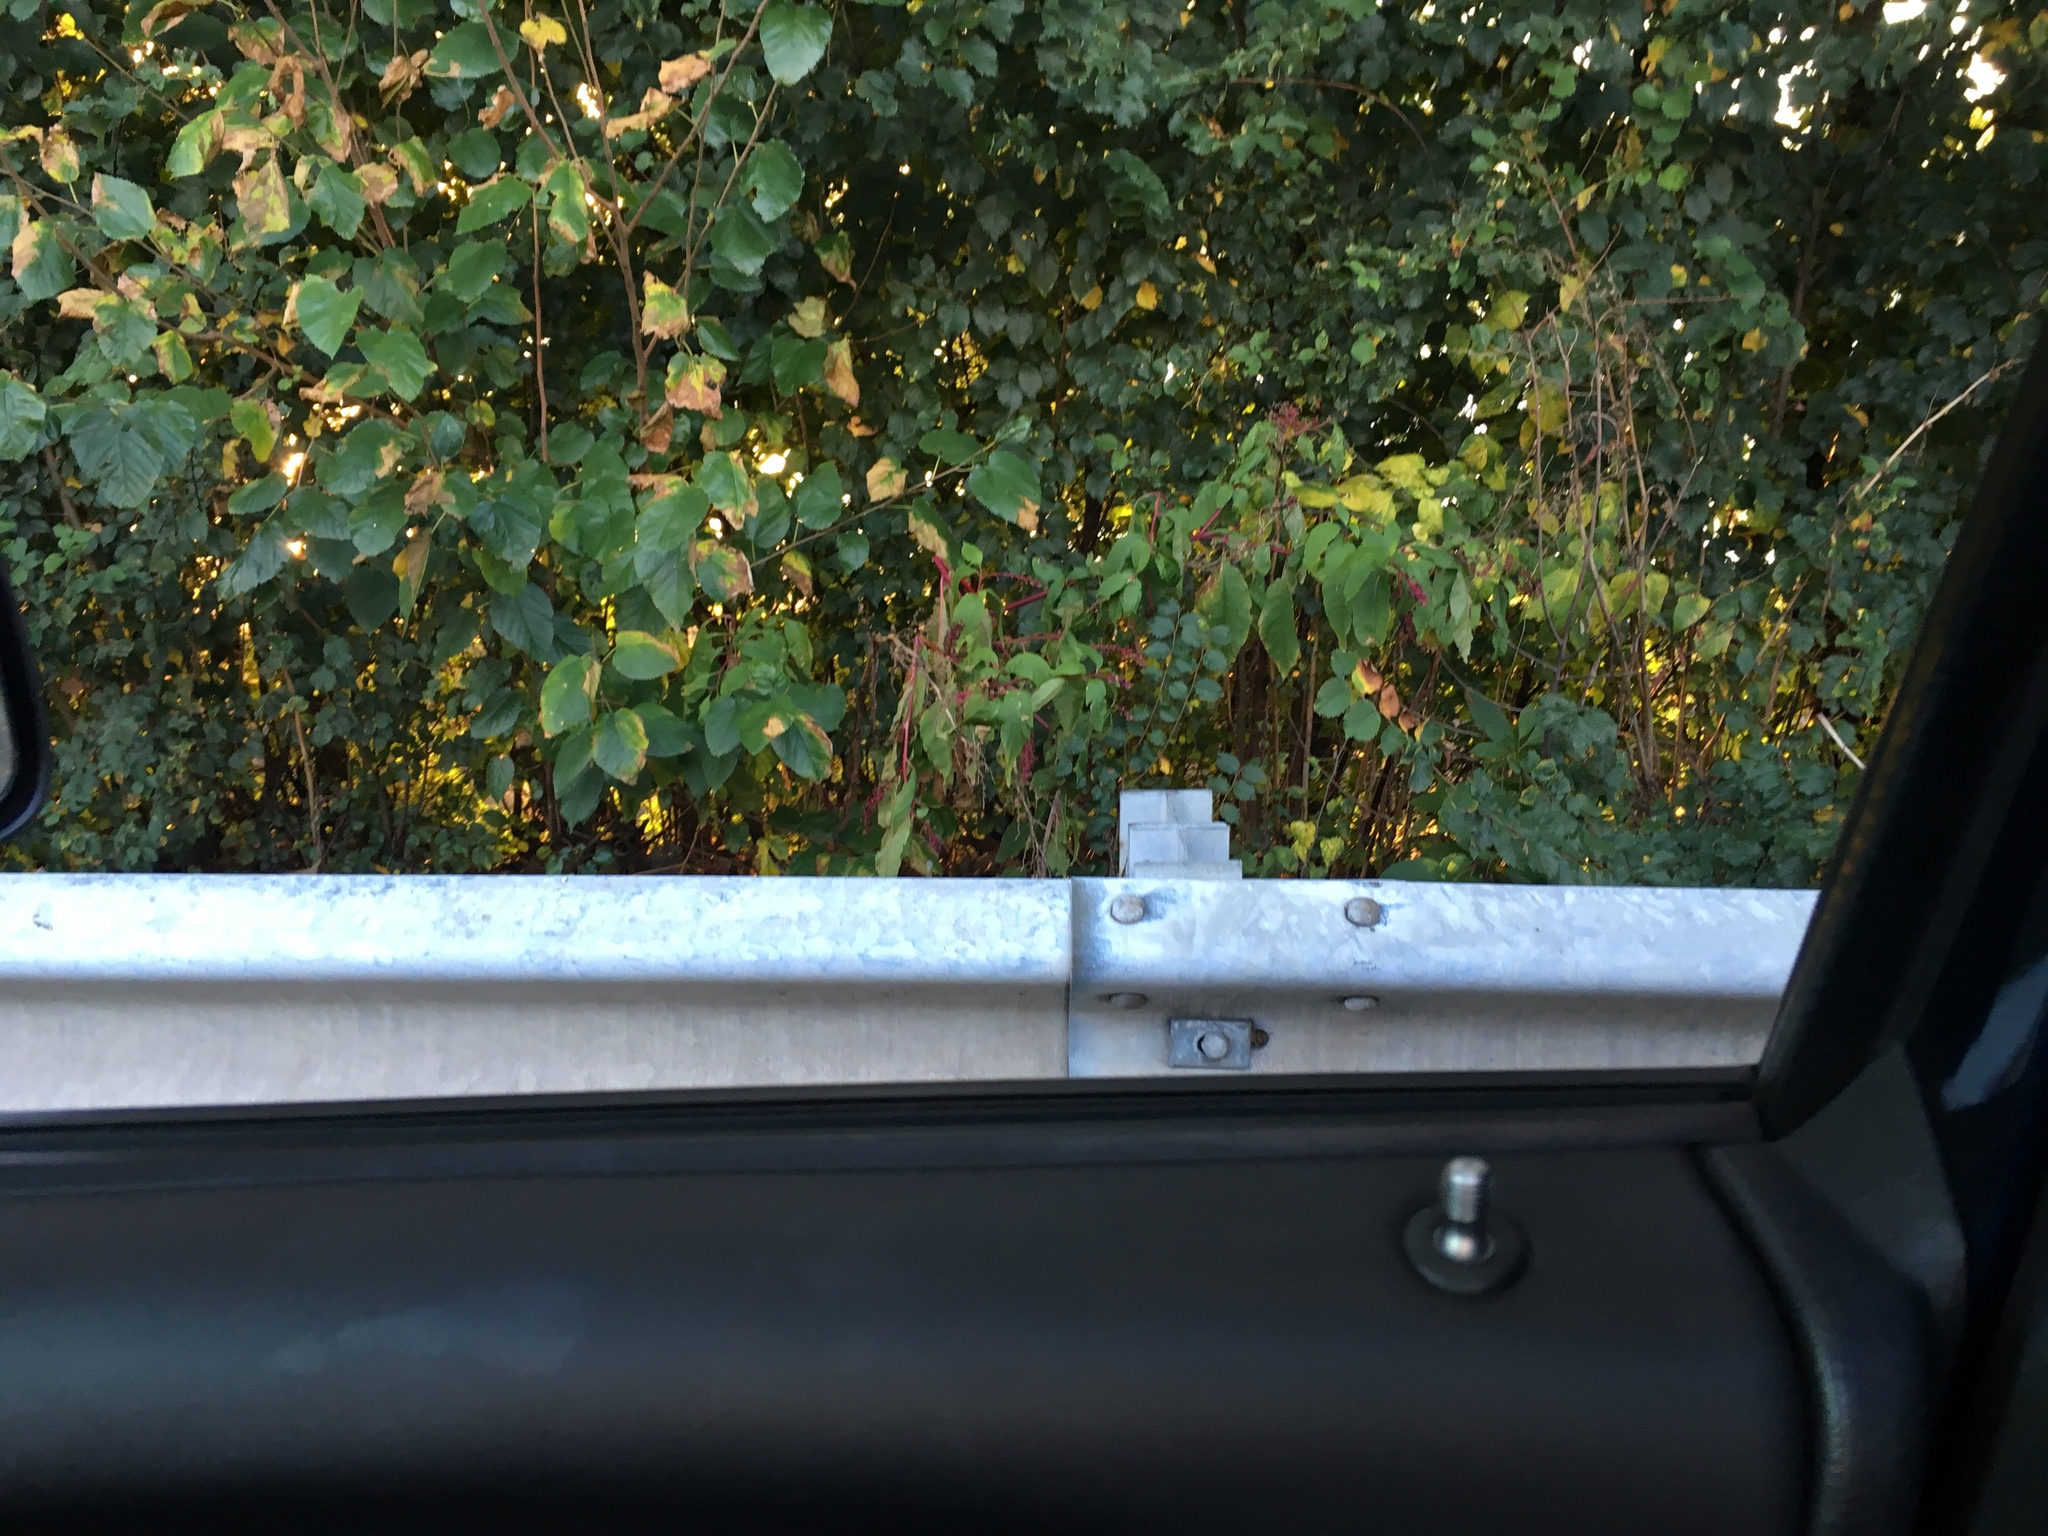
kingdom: Plantae
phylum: Tracheophyta
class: Magnoliopsida
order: Caryophyllales
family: Phytolaccaceae
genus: Phytolacca
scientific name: Phytolacca americana
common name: American pokeweed
